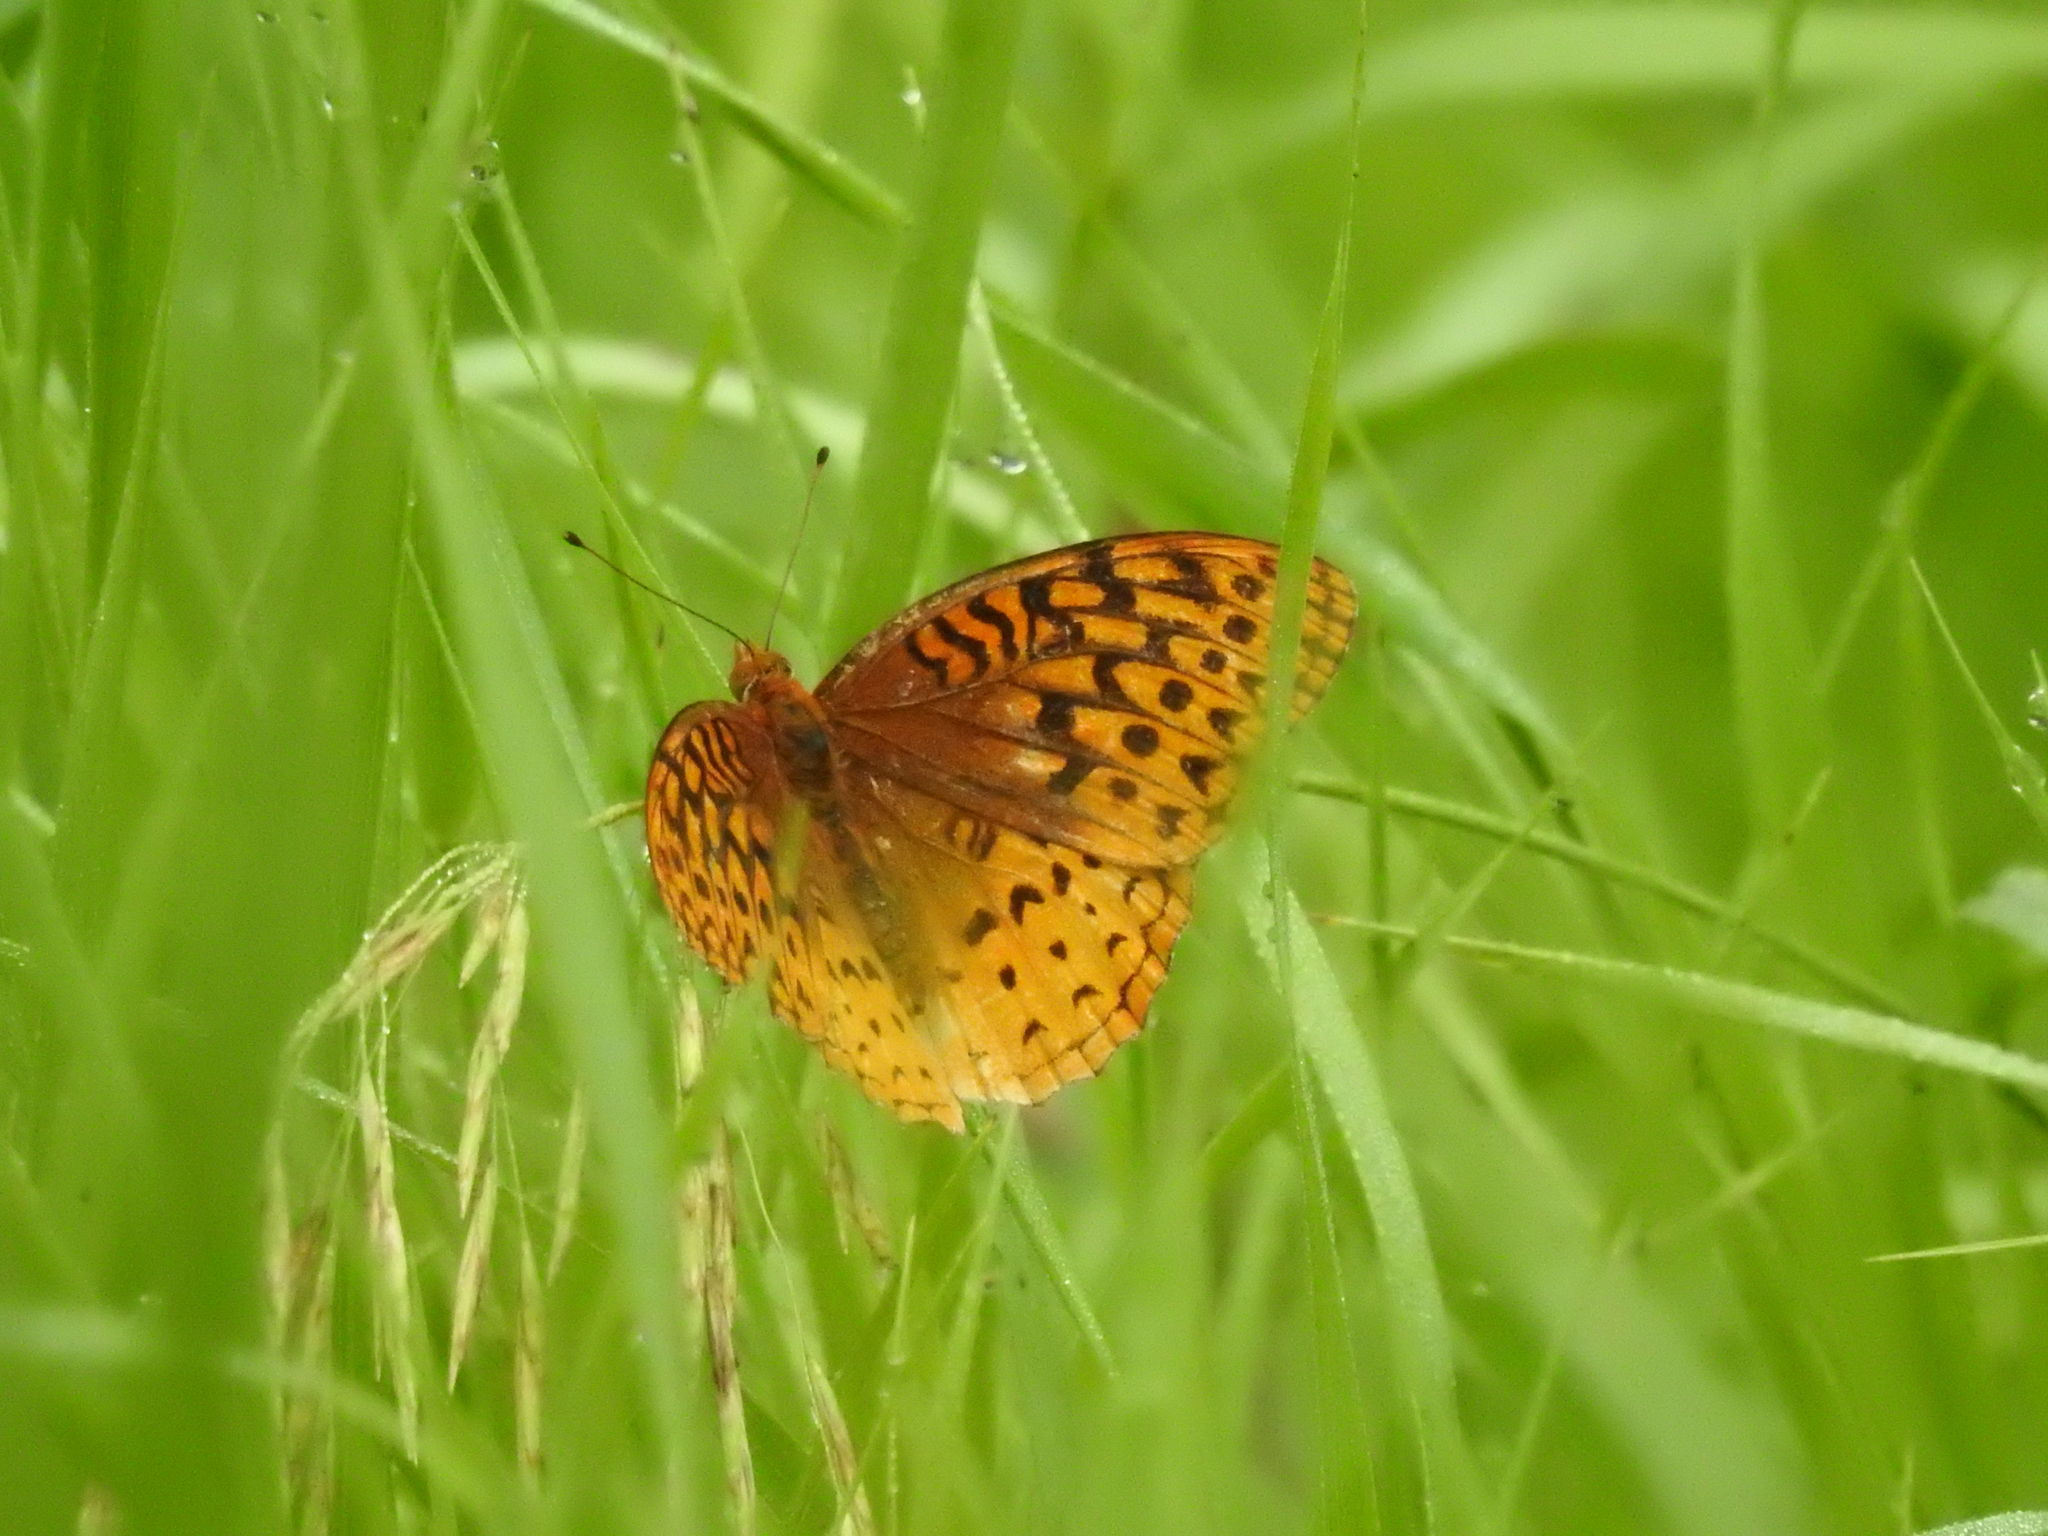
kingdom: Animalia
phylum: Arthropoda
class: Insecta
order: Lepidoptera
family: Nymphalidae
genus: Speyeria
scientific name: Speyeria cybele
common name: Great spangled fritillary
